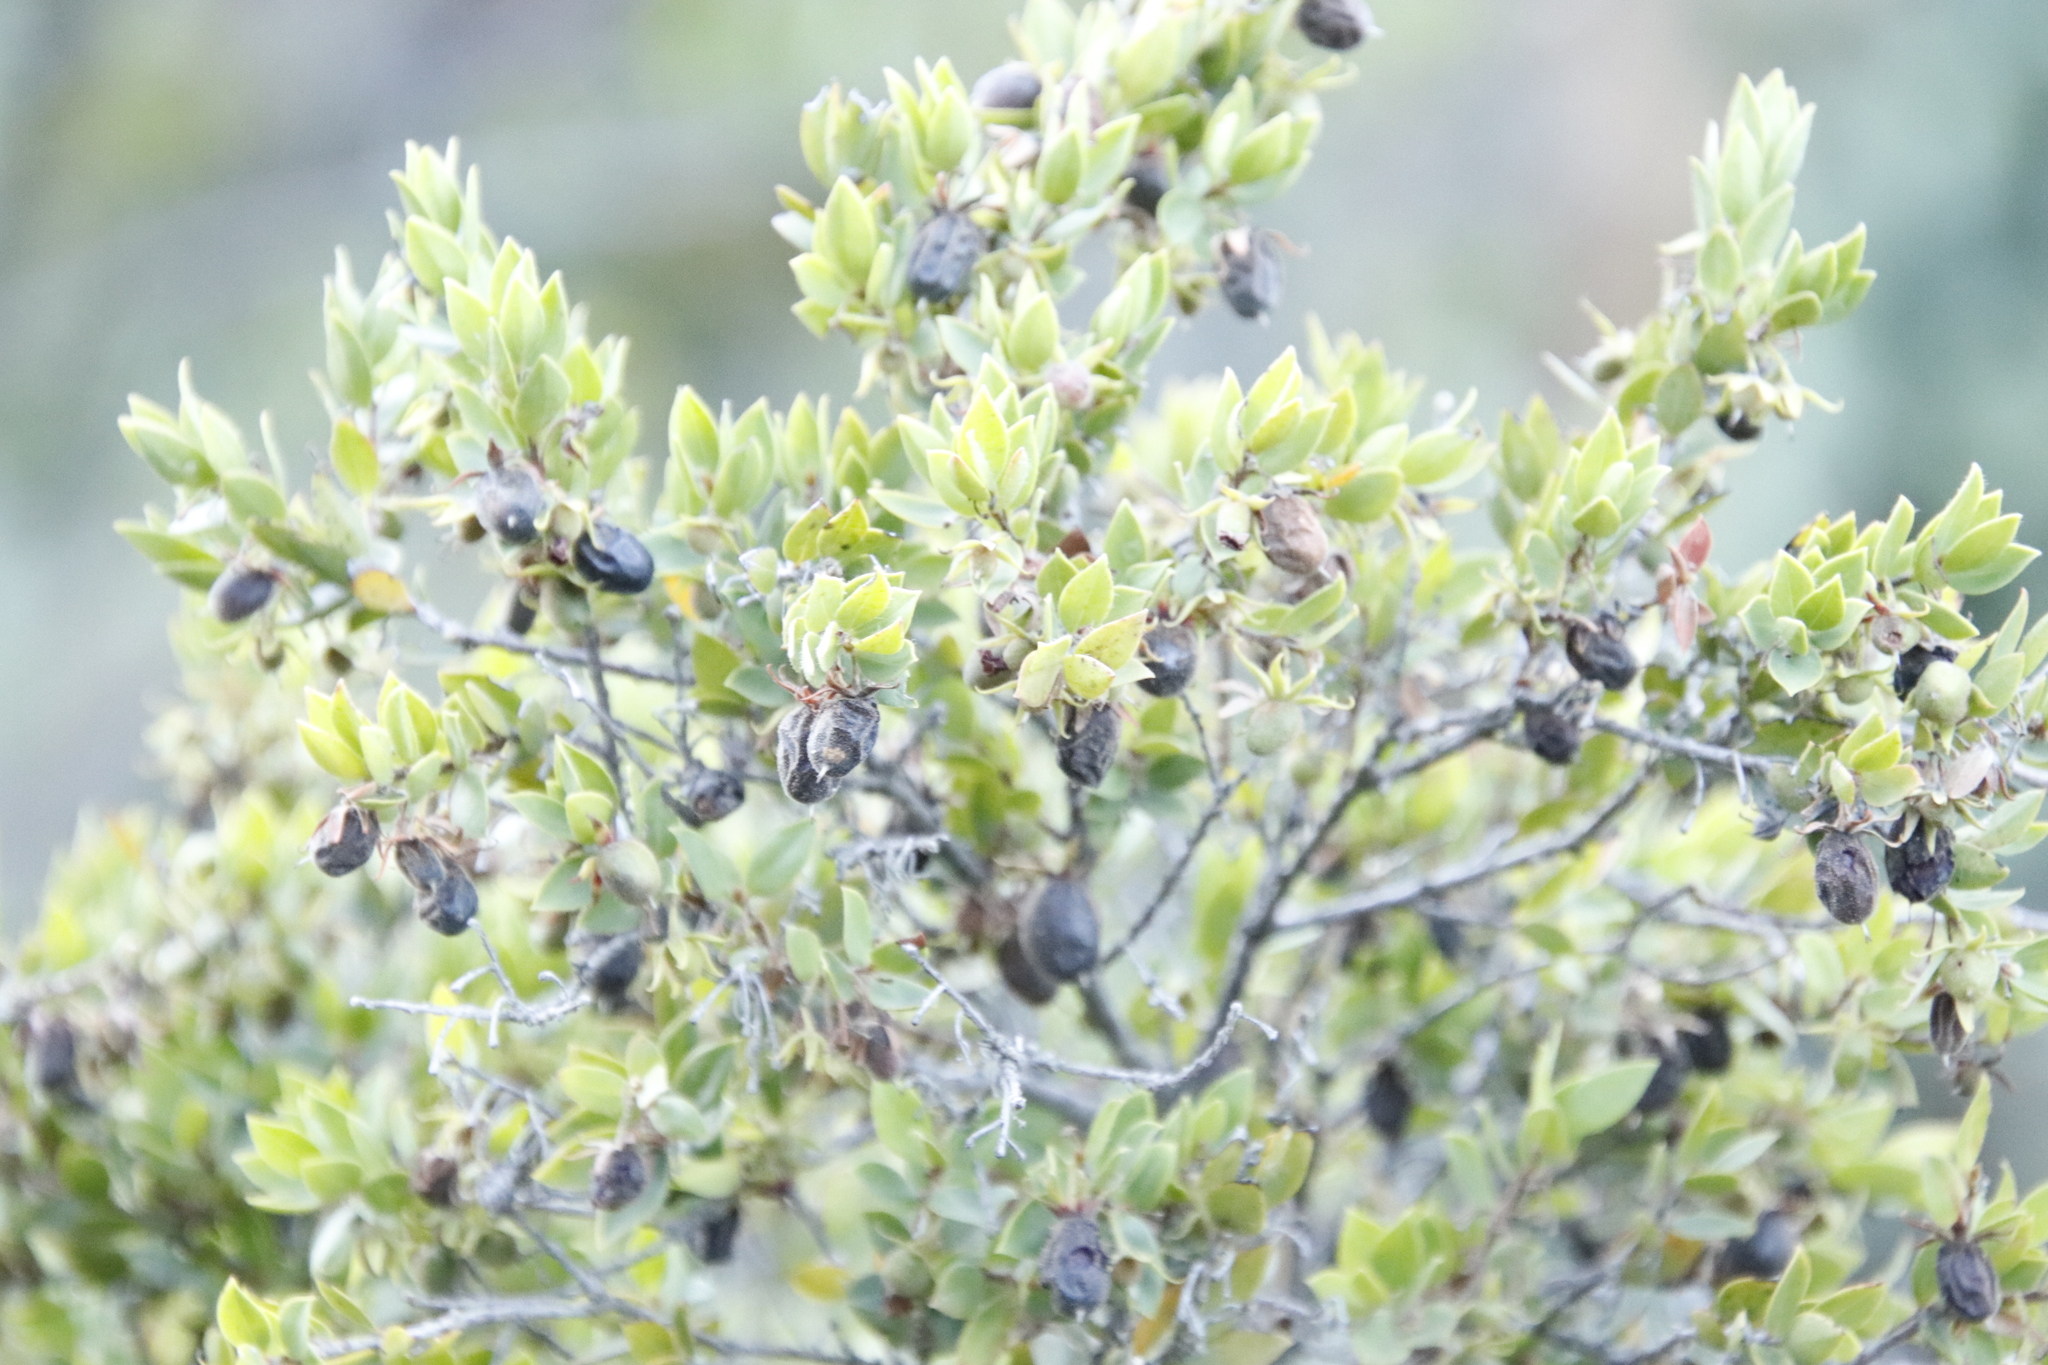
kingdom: Plantae
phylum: Tracheophyta
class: Magnoliopsida
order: Ericales
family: Ebenaceae
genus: Diospyros
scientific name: Diospyros glabra
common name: Fynbos star apple
